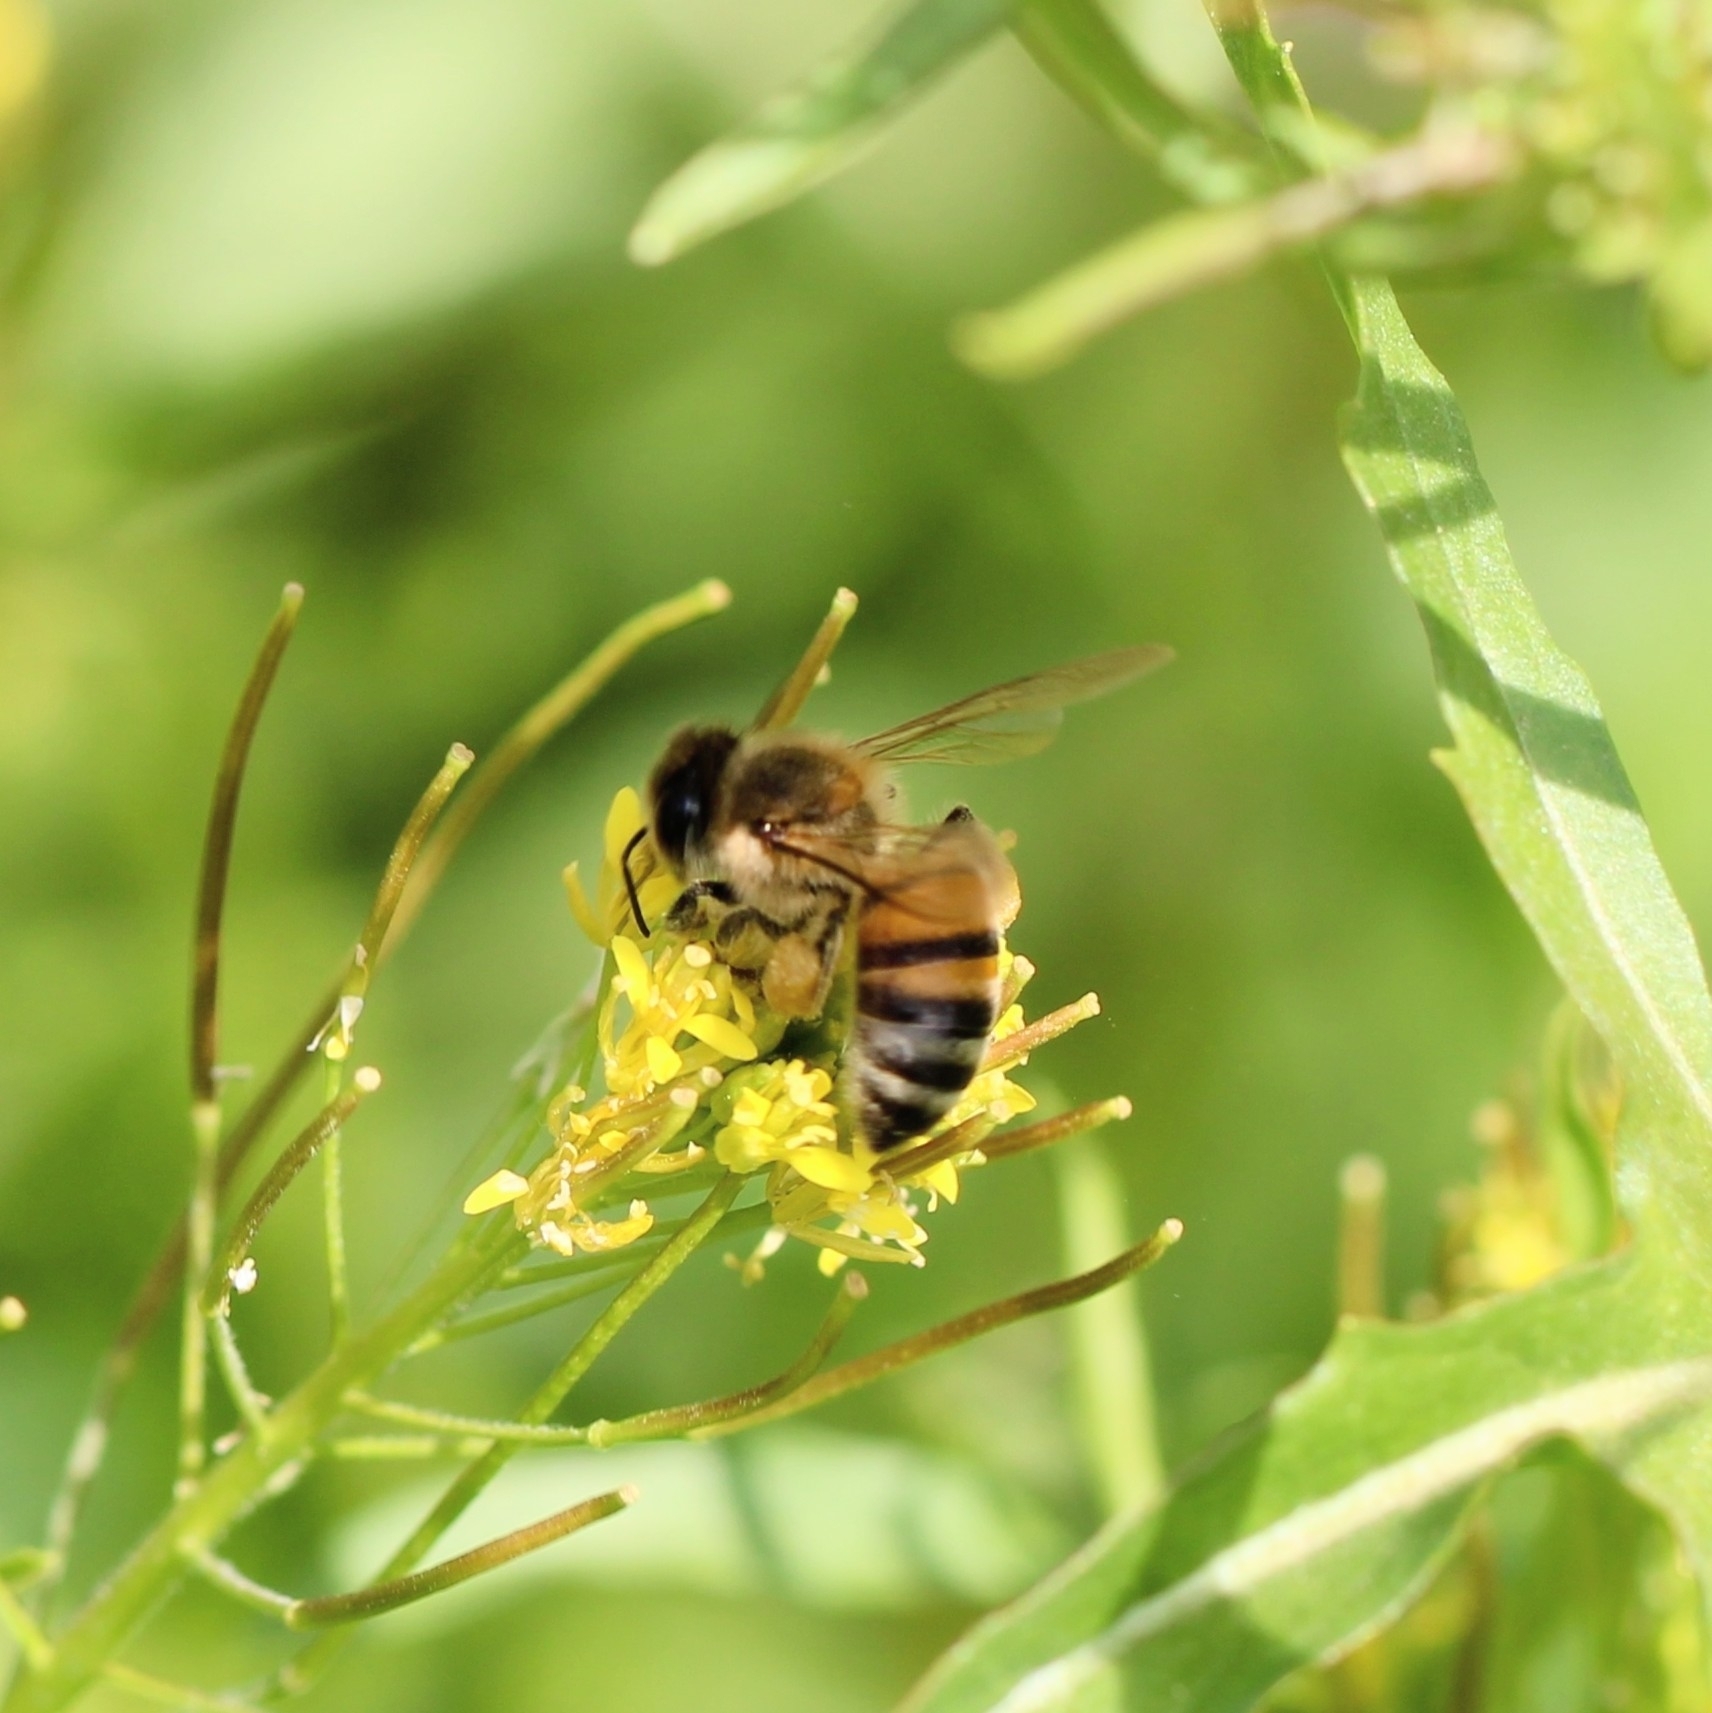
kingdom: Animalia
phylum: Arthropoda
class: Insecta
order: Hymenoptera
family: Apidae
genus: Apis
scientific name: Apis mellifera
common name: Honey bee
